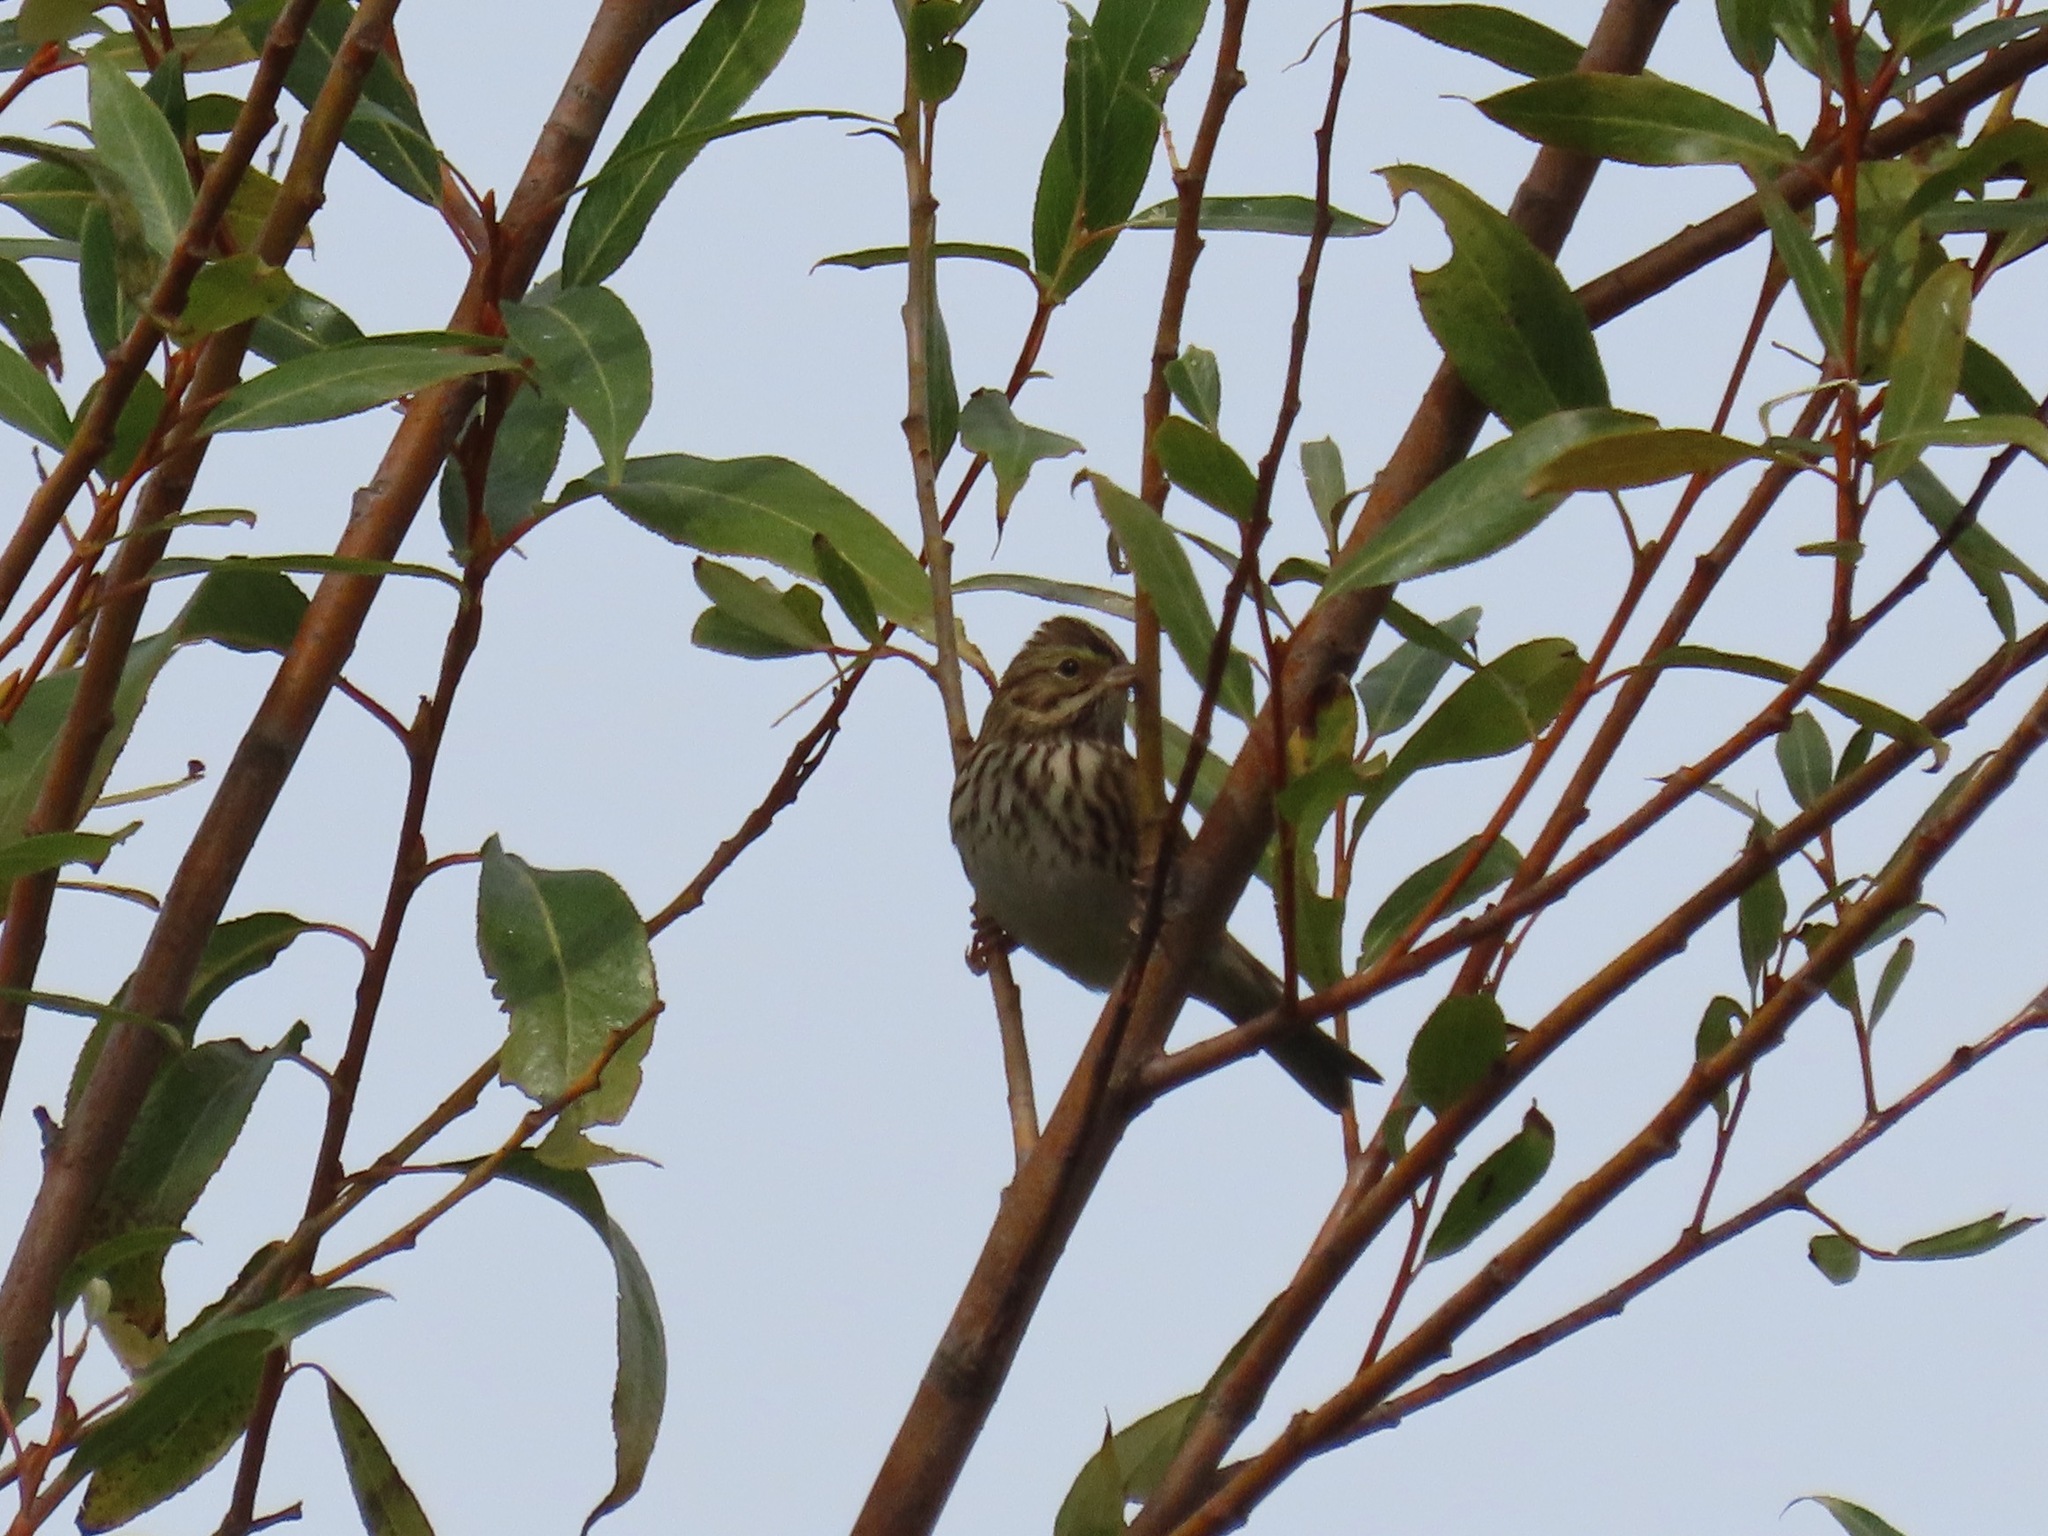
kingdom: Animalia
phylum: Chordata
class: Aves
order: Passeriformes
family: Passerellidae
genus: Passerculus
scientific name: Passerculus sandwichensis
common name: Savannah sparrow
